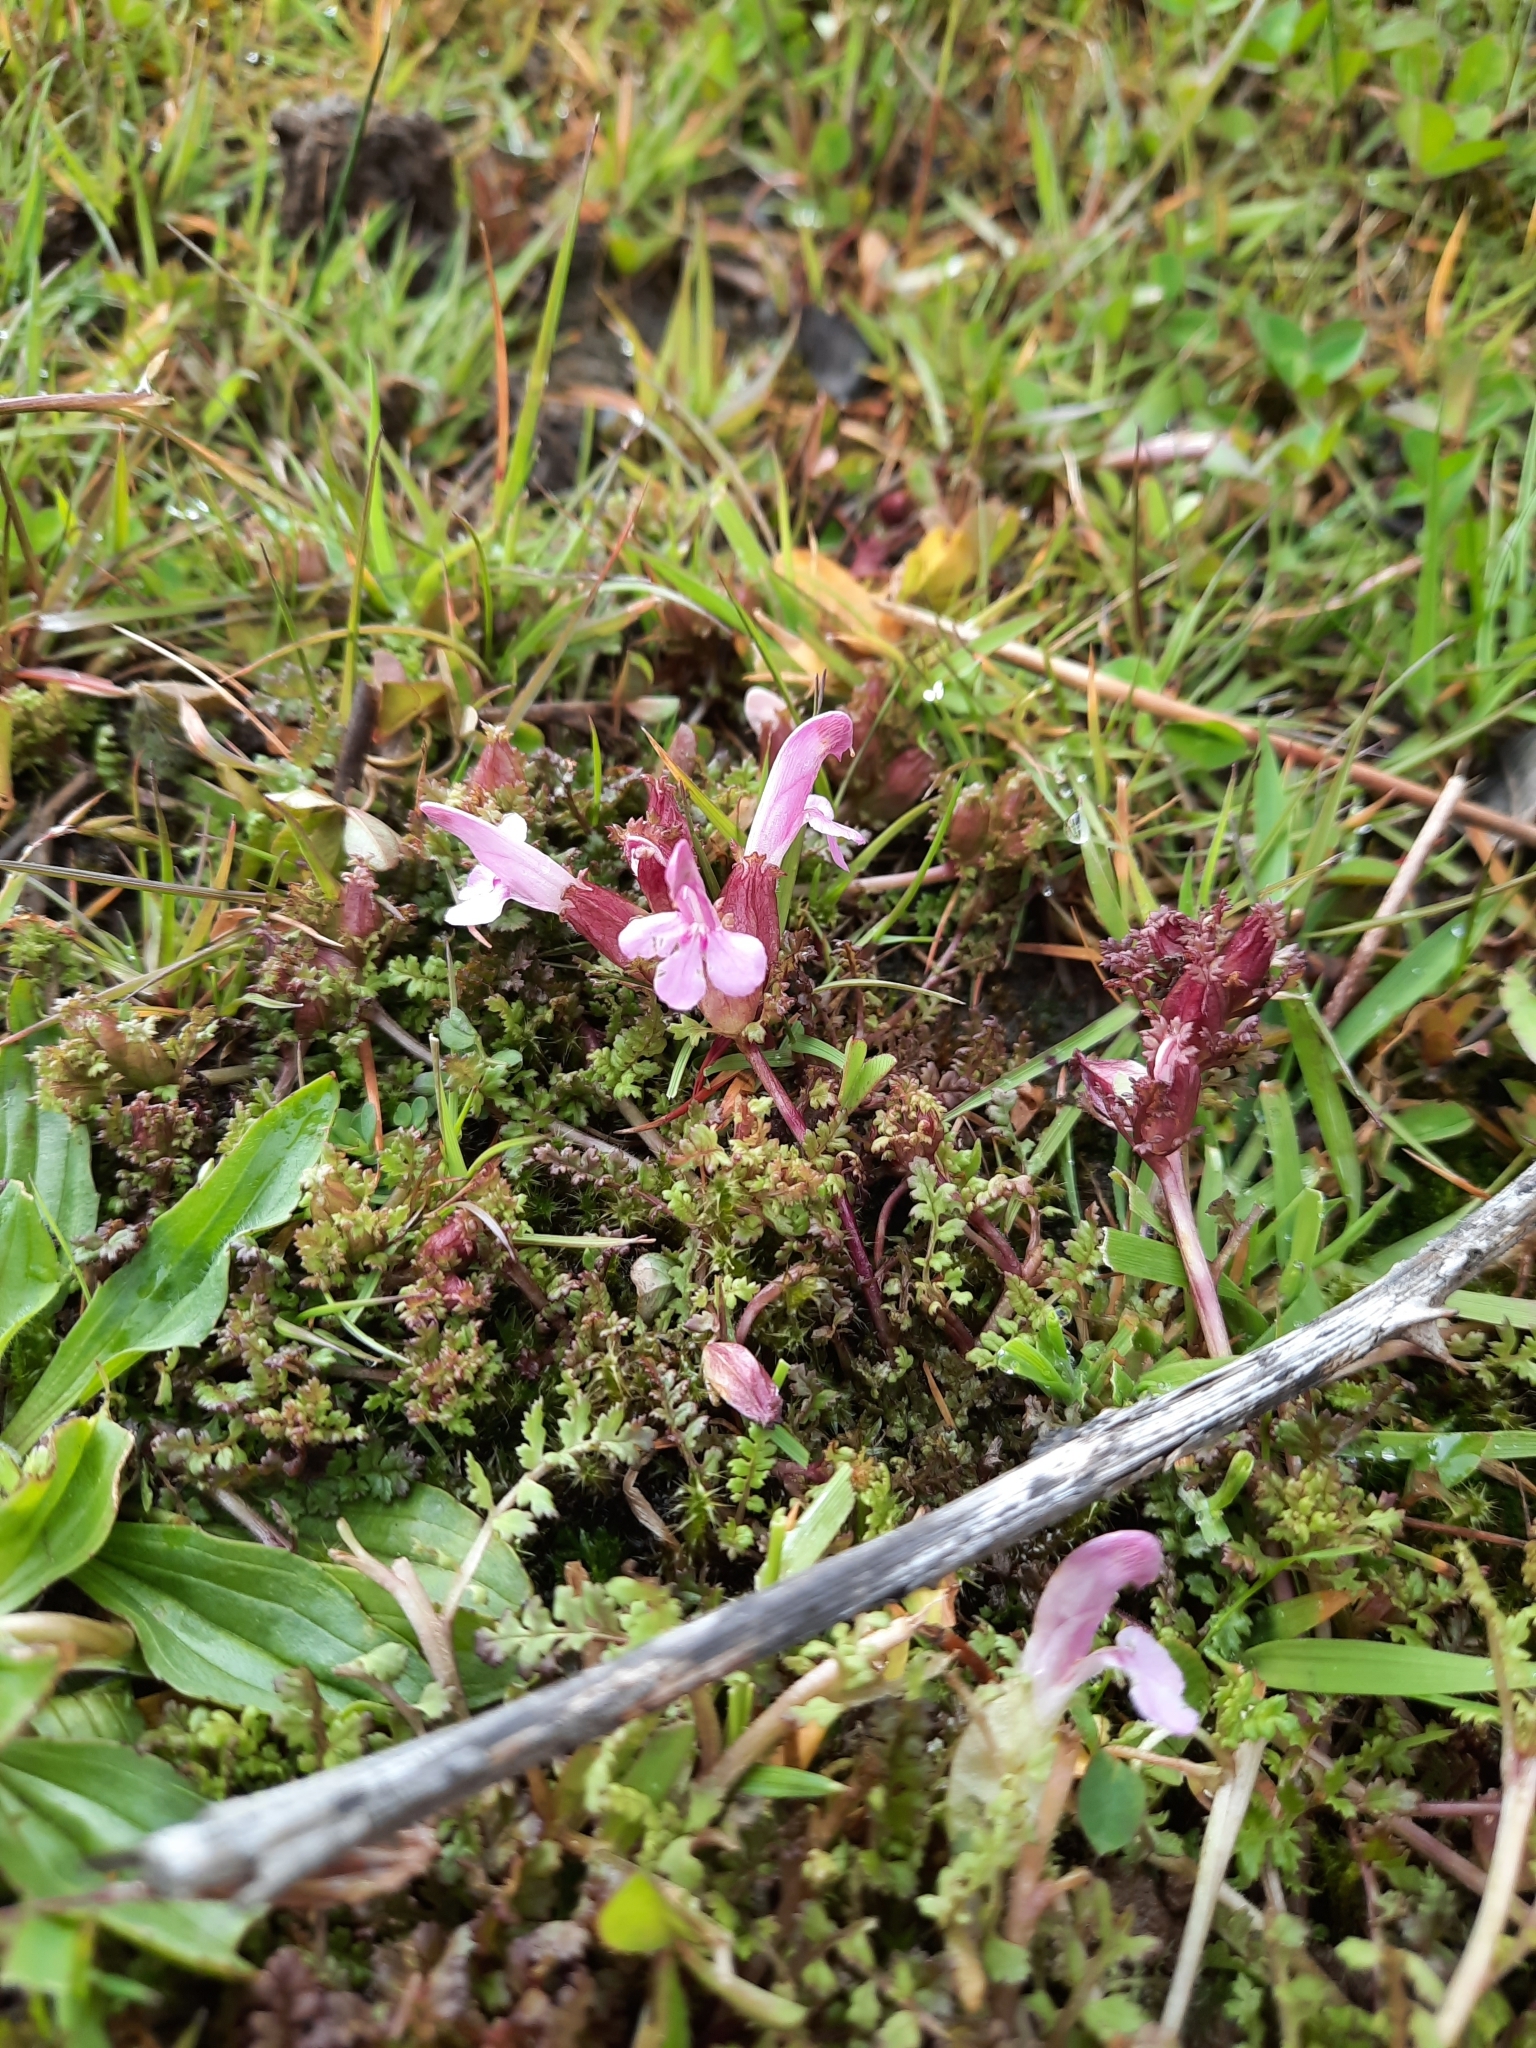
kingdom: Plantae
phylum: Tracheophyta
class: Magnoliopsida
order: Lamiales
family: Orobanchaceae
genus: Pedicularis
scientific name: Pedicularis sylvatica
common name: Lousewort
